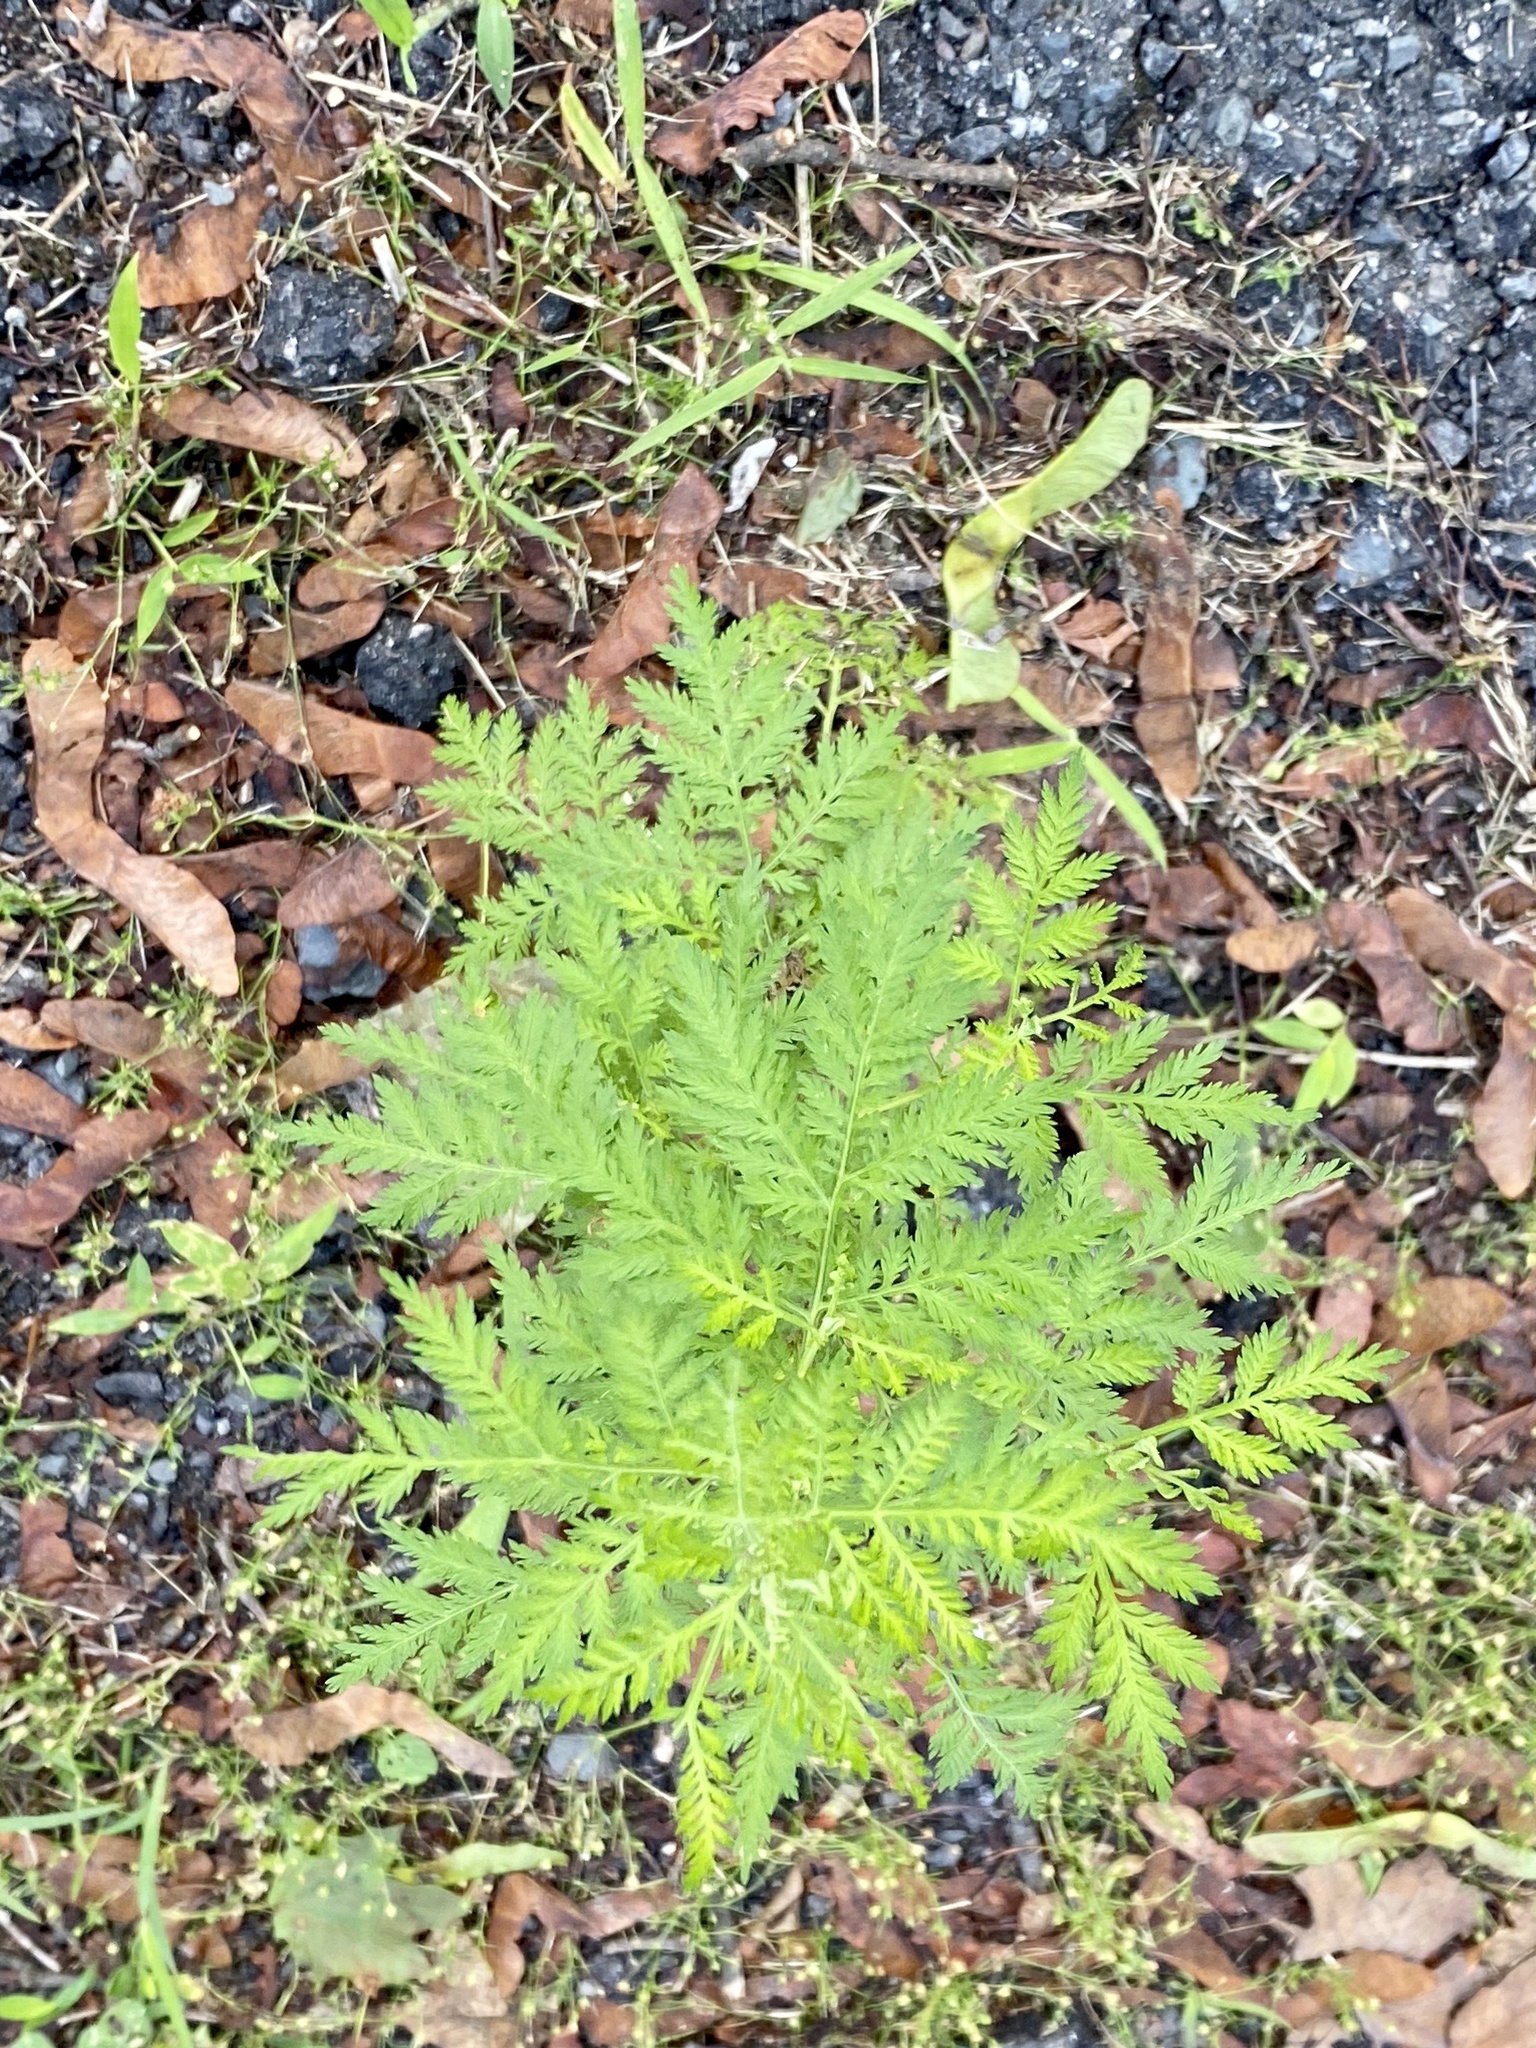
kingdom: Plantae
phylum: Tracheophyta
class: Magnoliopsida
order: Asterales
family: Asteraceae
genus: Artemisia
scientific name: Artemisia annua
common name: Sweet sagewort
